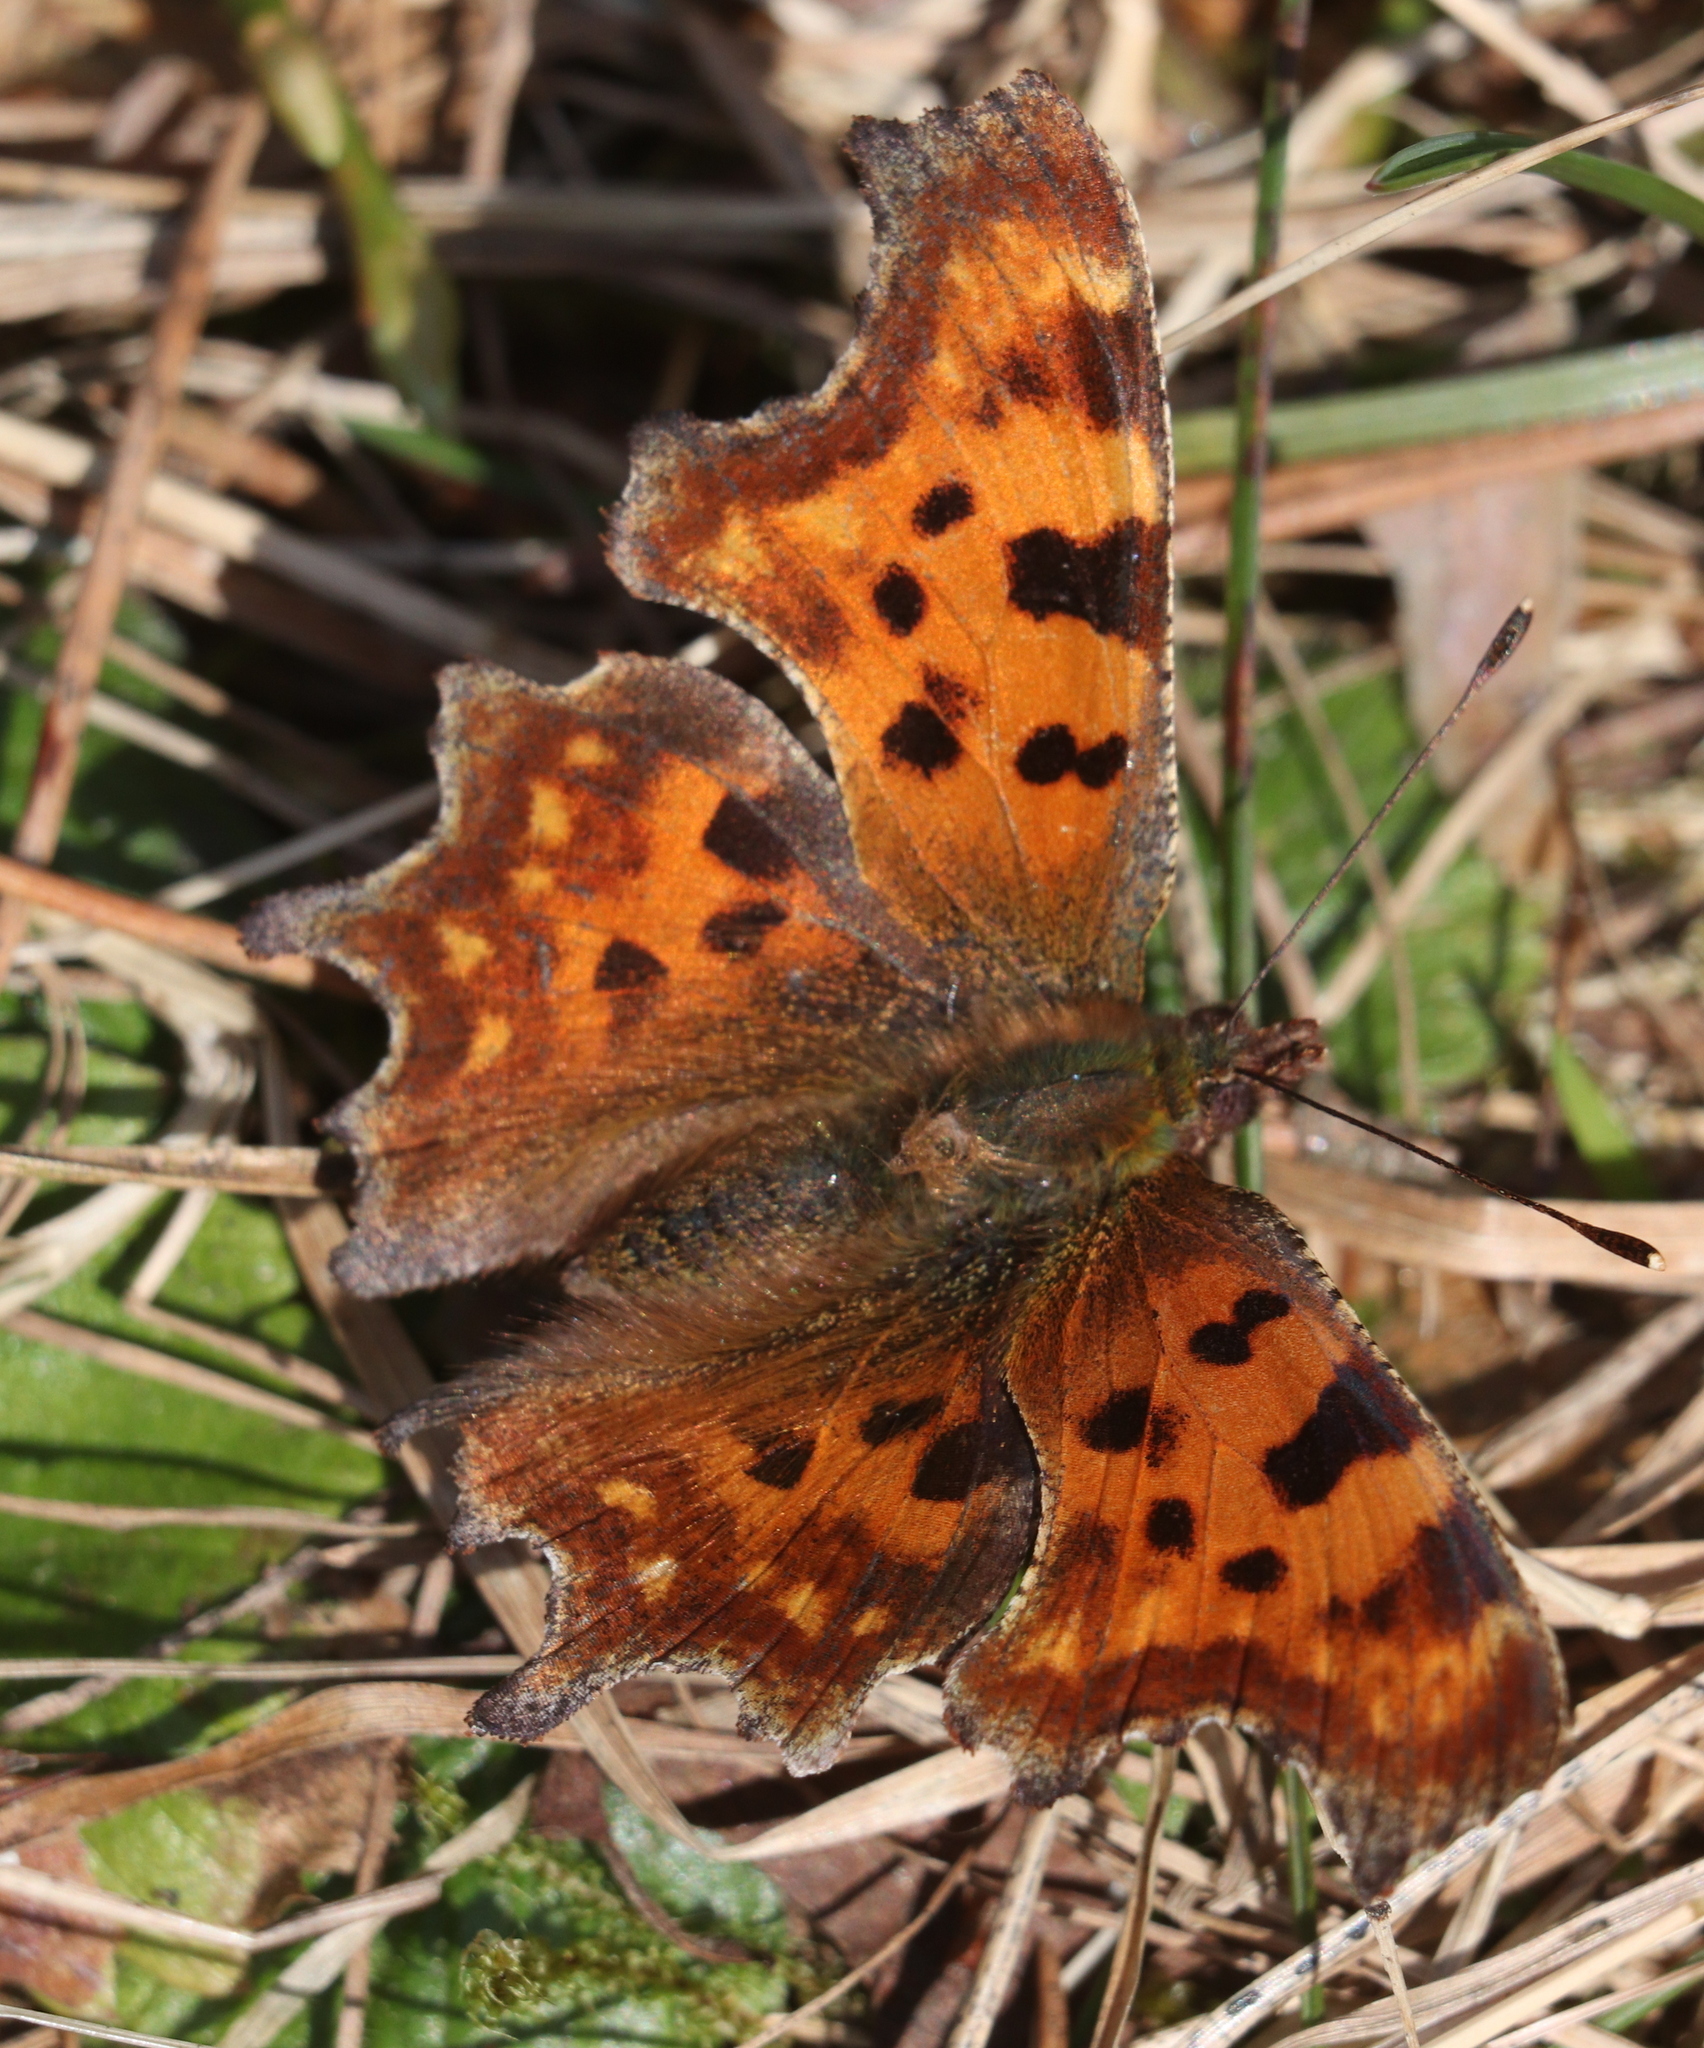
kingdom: Animalia
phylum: Arthropoda
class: Insecta
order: Lepidoptera
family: Nymphalidae
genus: Polygonia
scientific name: Polygonia c-album
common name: Comma
